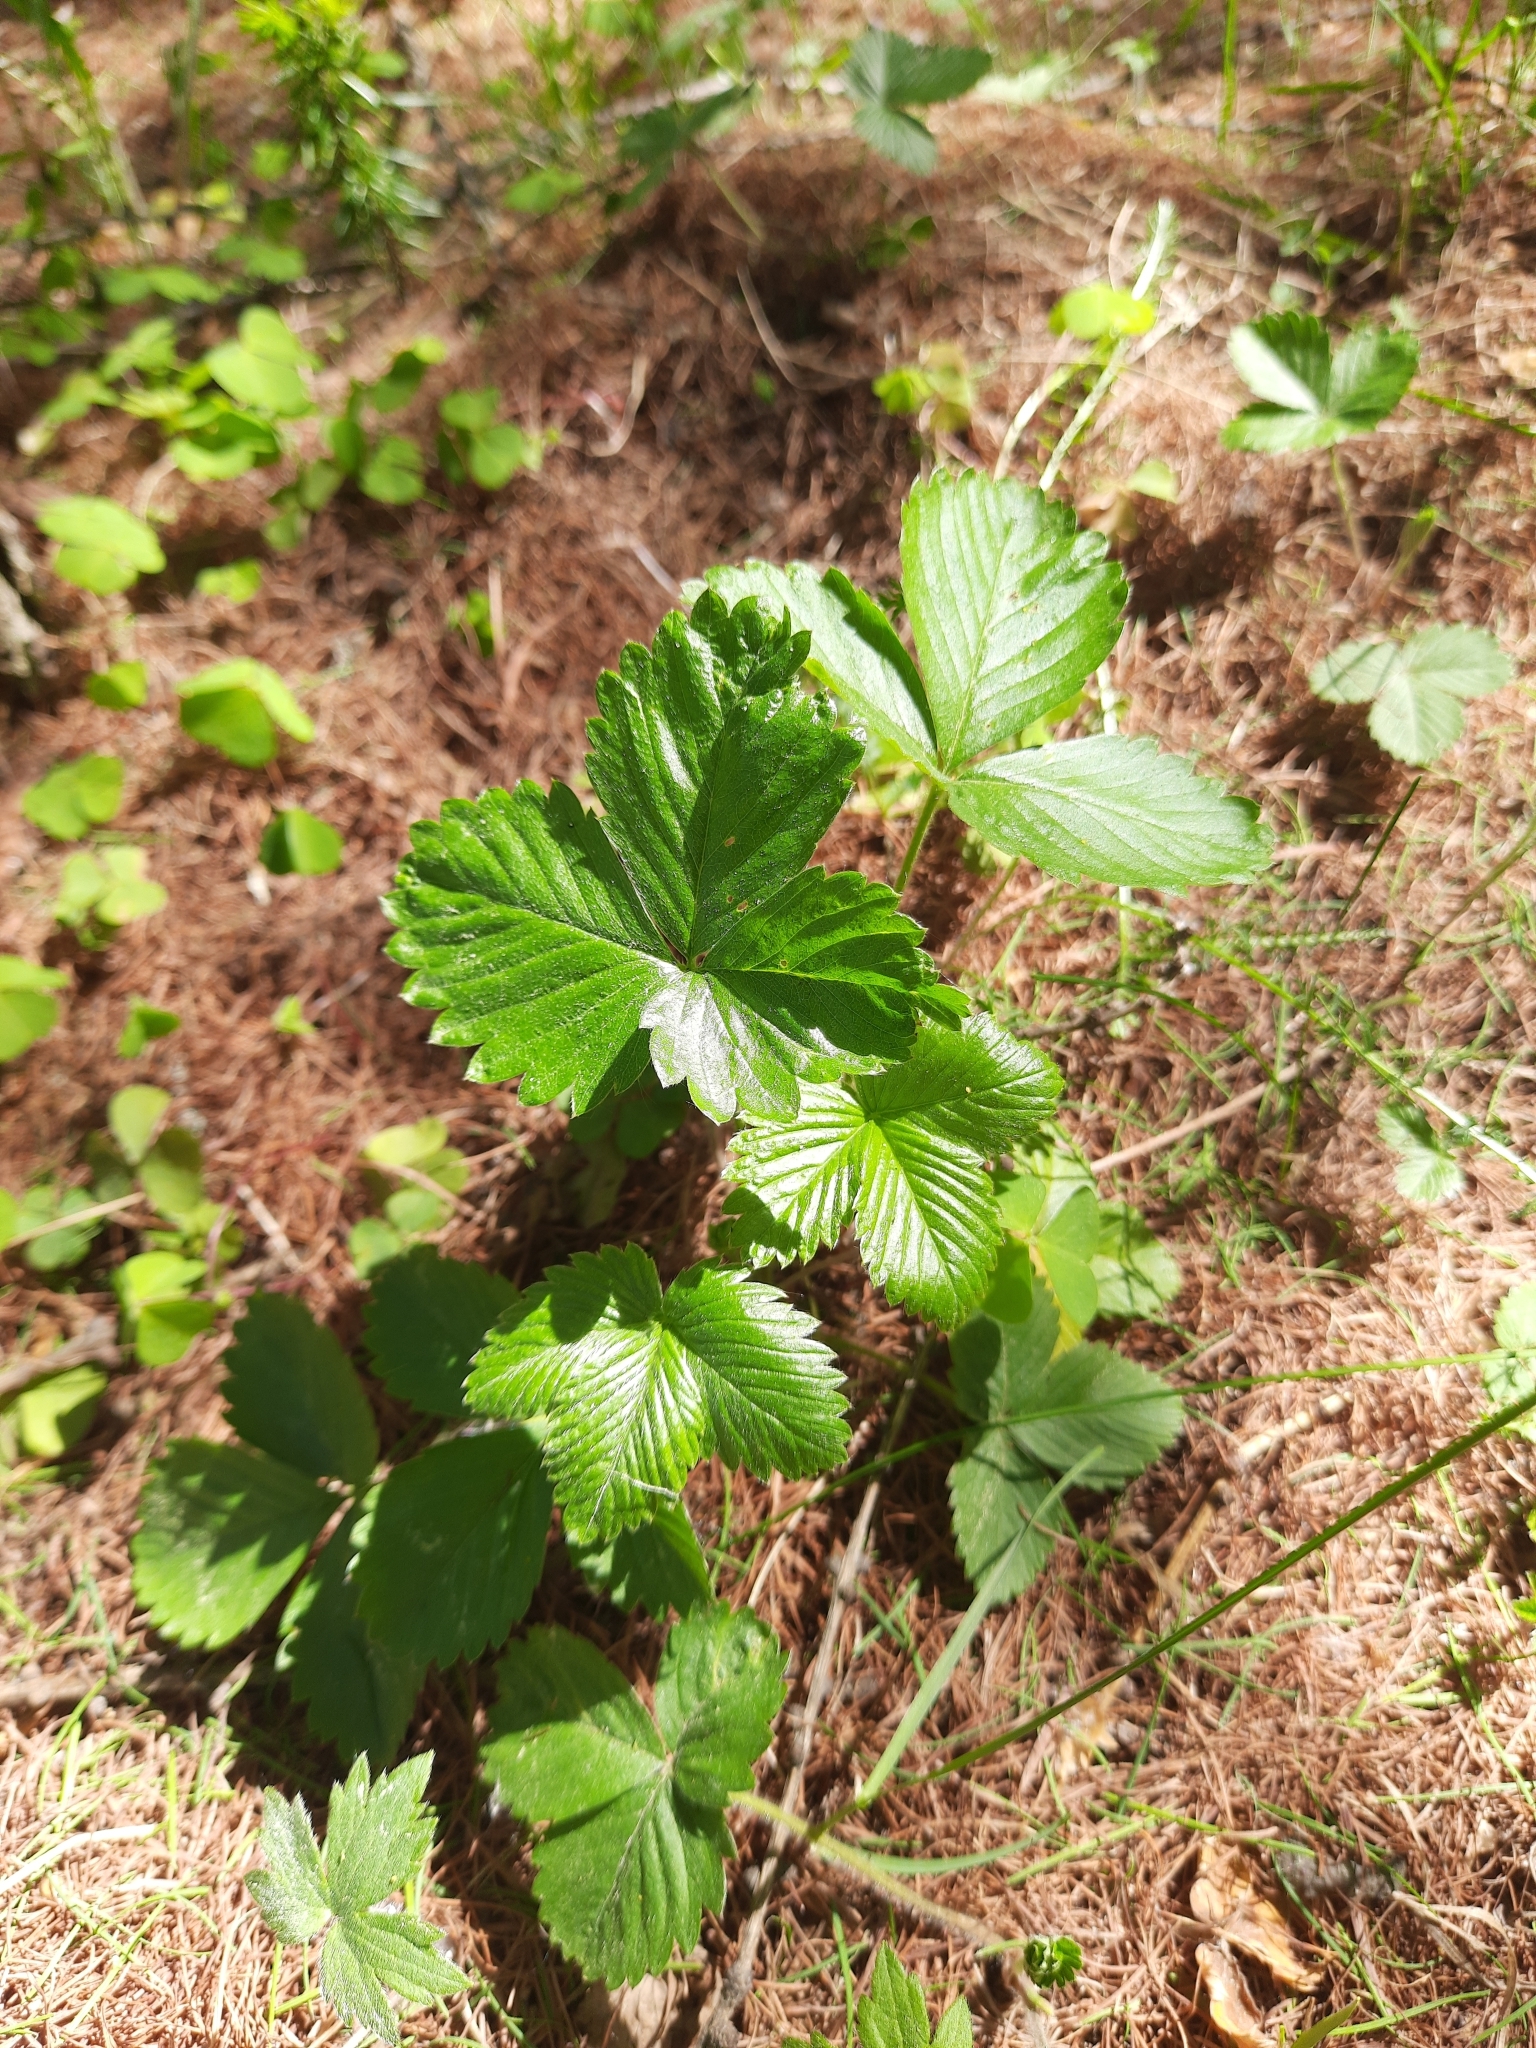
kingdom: Plantae
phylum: Tracheophyta
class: Magnoliopsida
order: Rosales
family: Rosaceae
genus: Fragaria
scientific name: Fragaria vesca
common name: Wild strawberry
